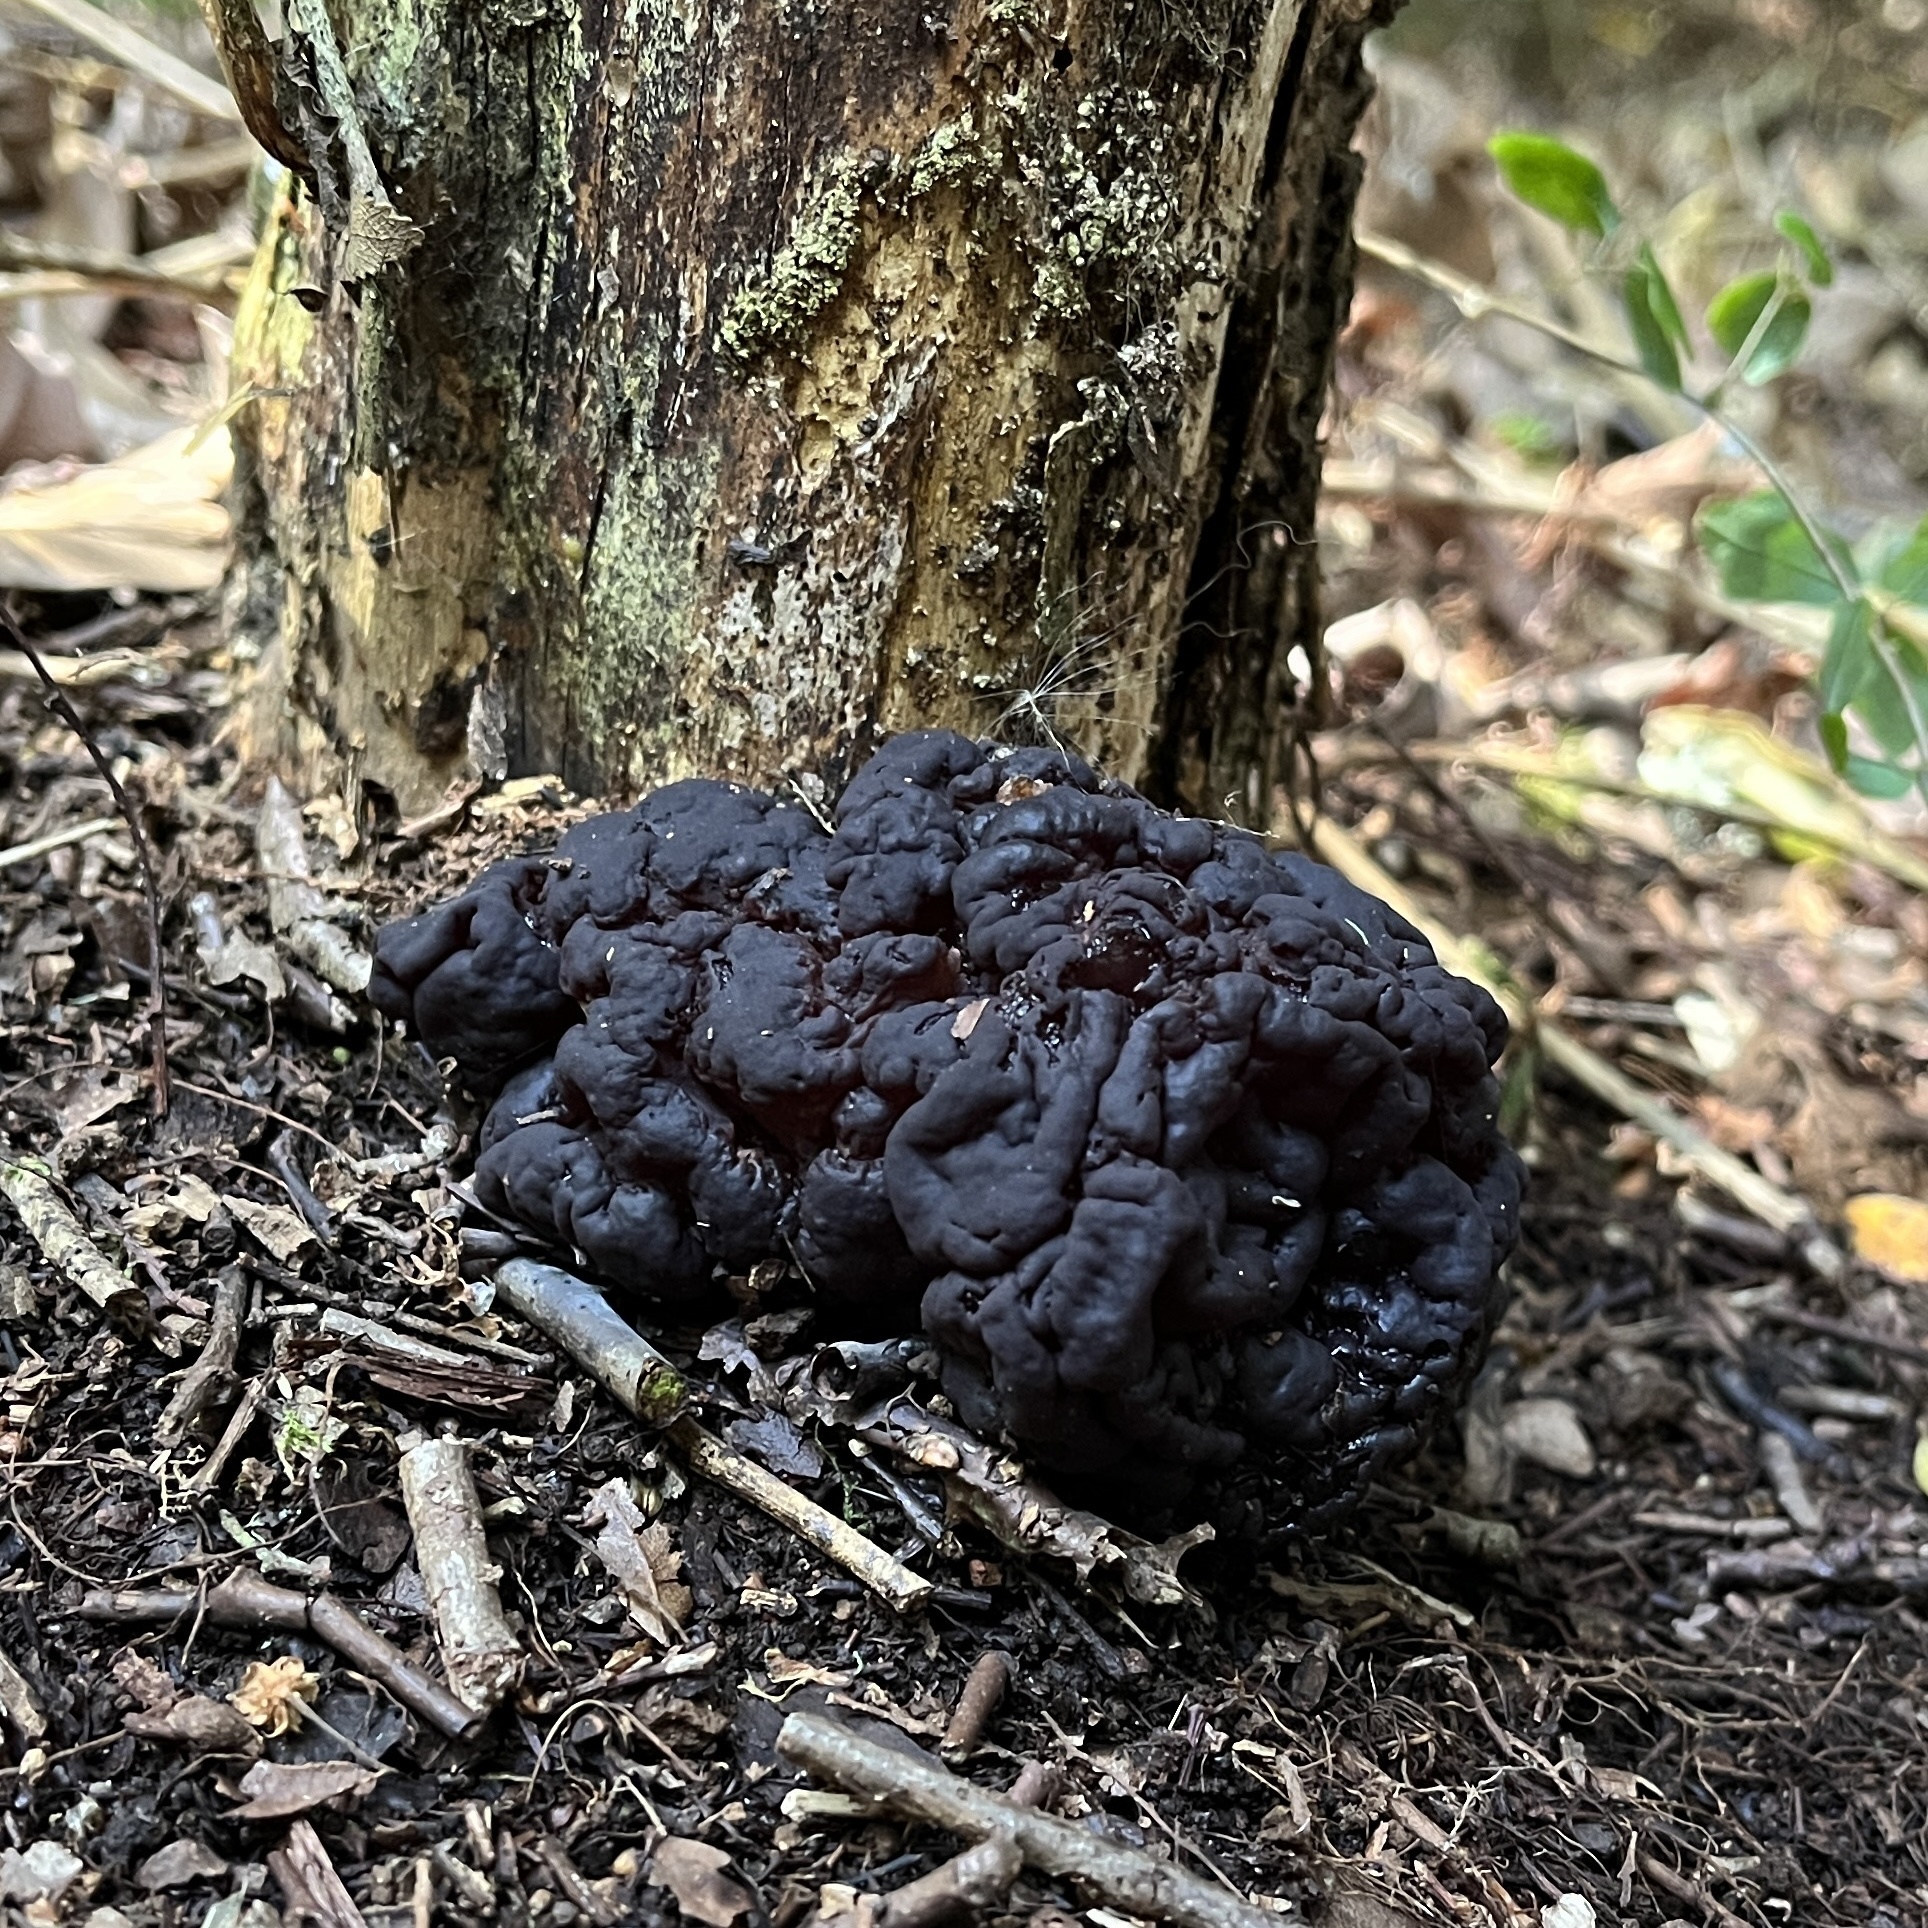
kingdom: Fungi
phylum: Ascomycota
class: Leotiomycetes
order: Helotiales
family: Gelatinodiscaceae
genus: Ascotremella
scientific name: Ascotremella faginea
